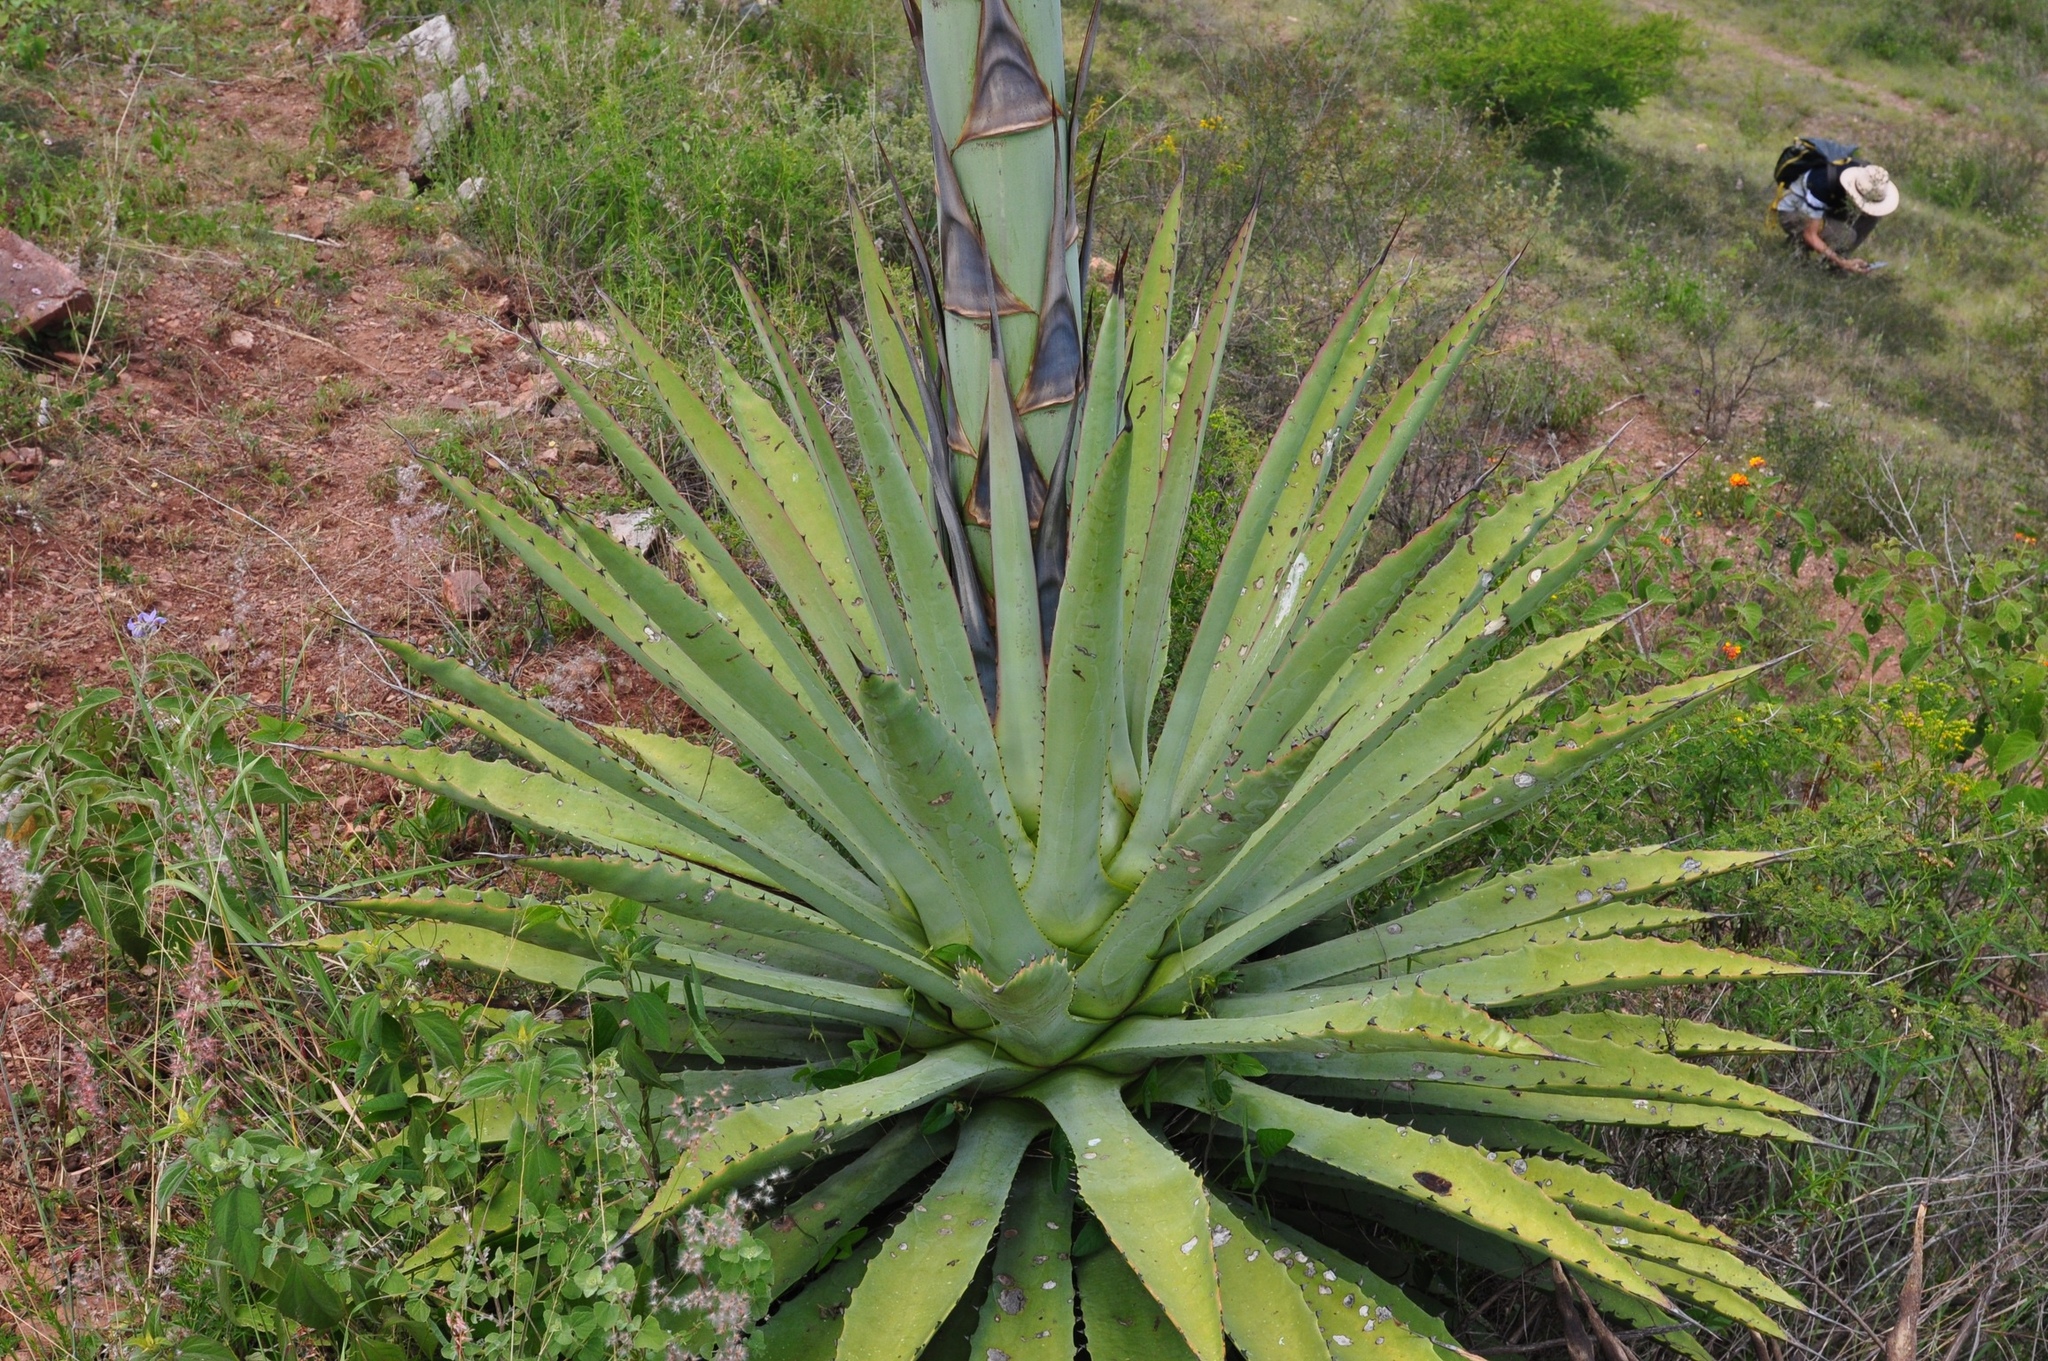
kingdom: Plantae
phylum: Tracheophyta
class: Liliopsida
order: Asparagales
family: Asparagaceae
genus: Agave
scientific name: Agave
